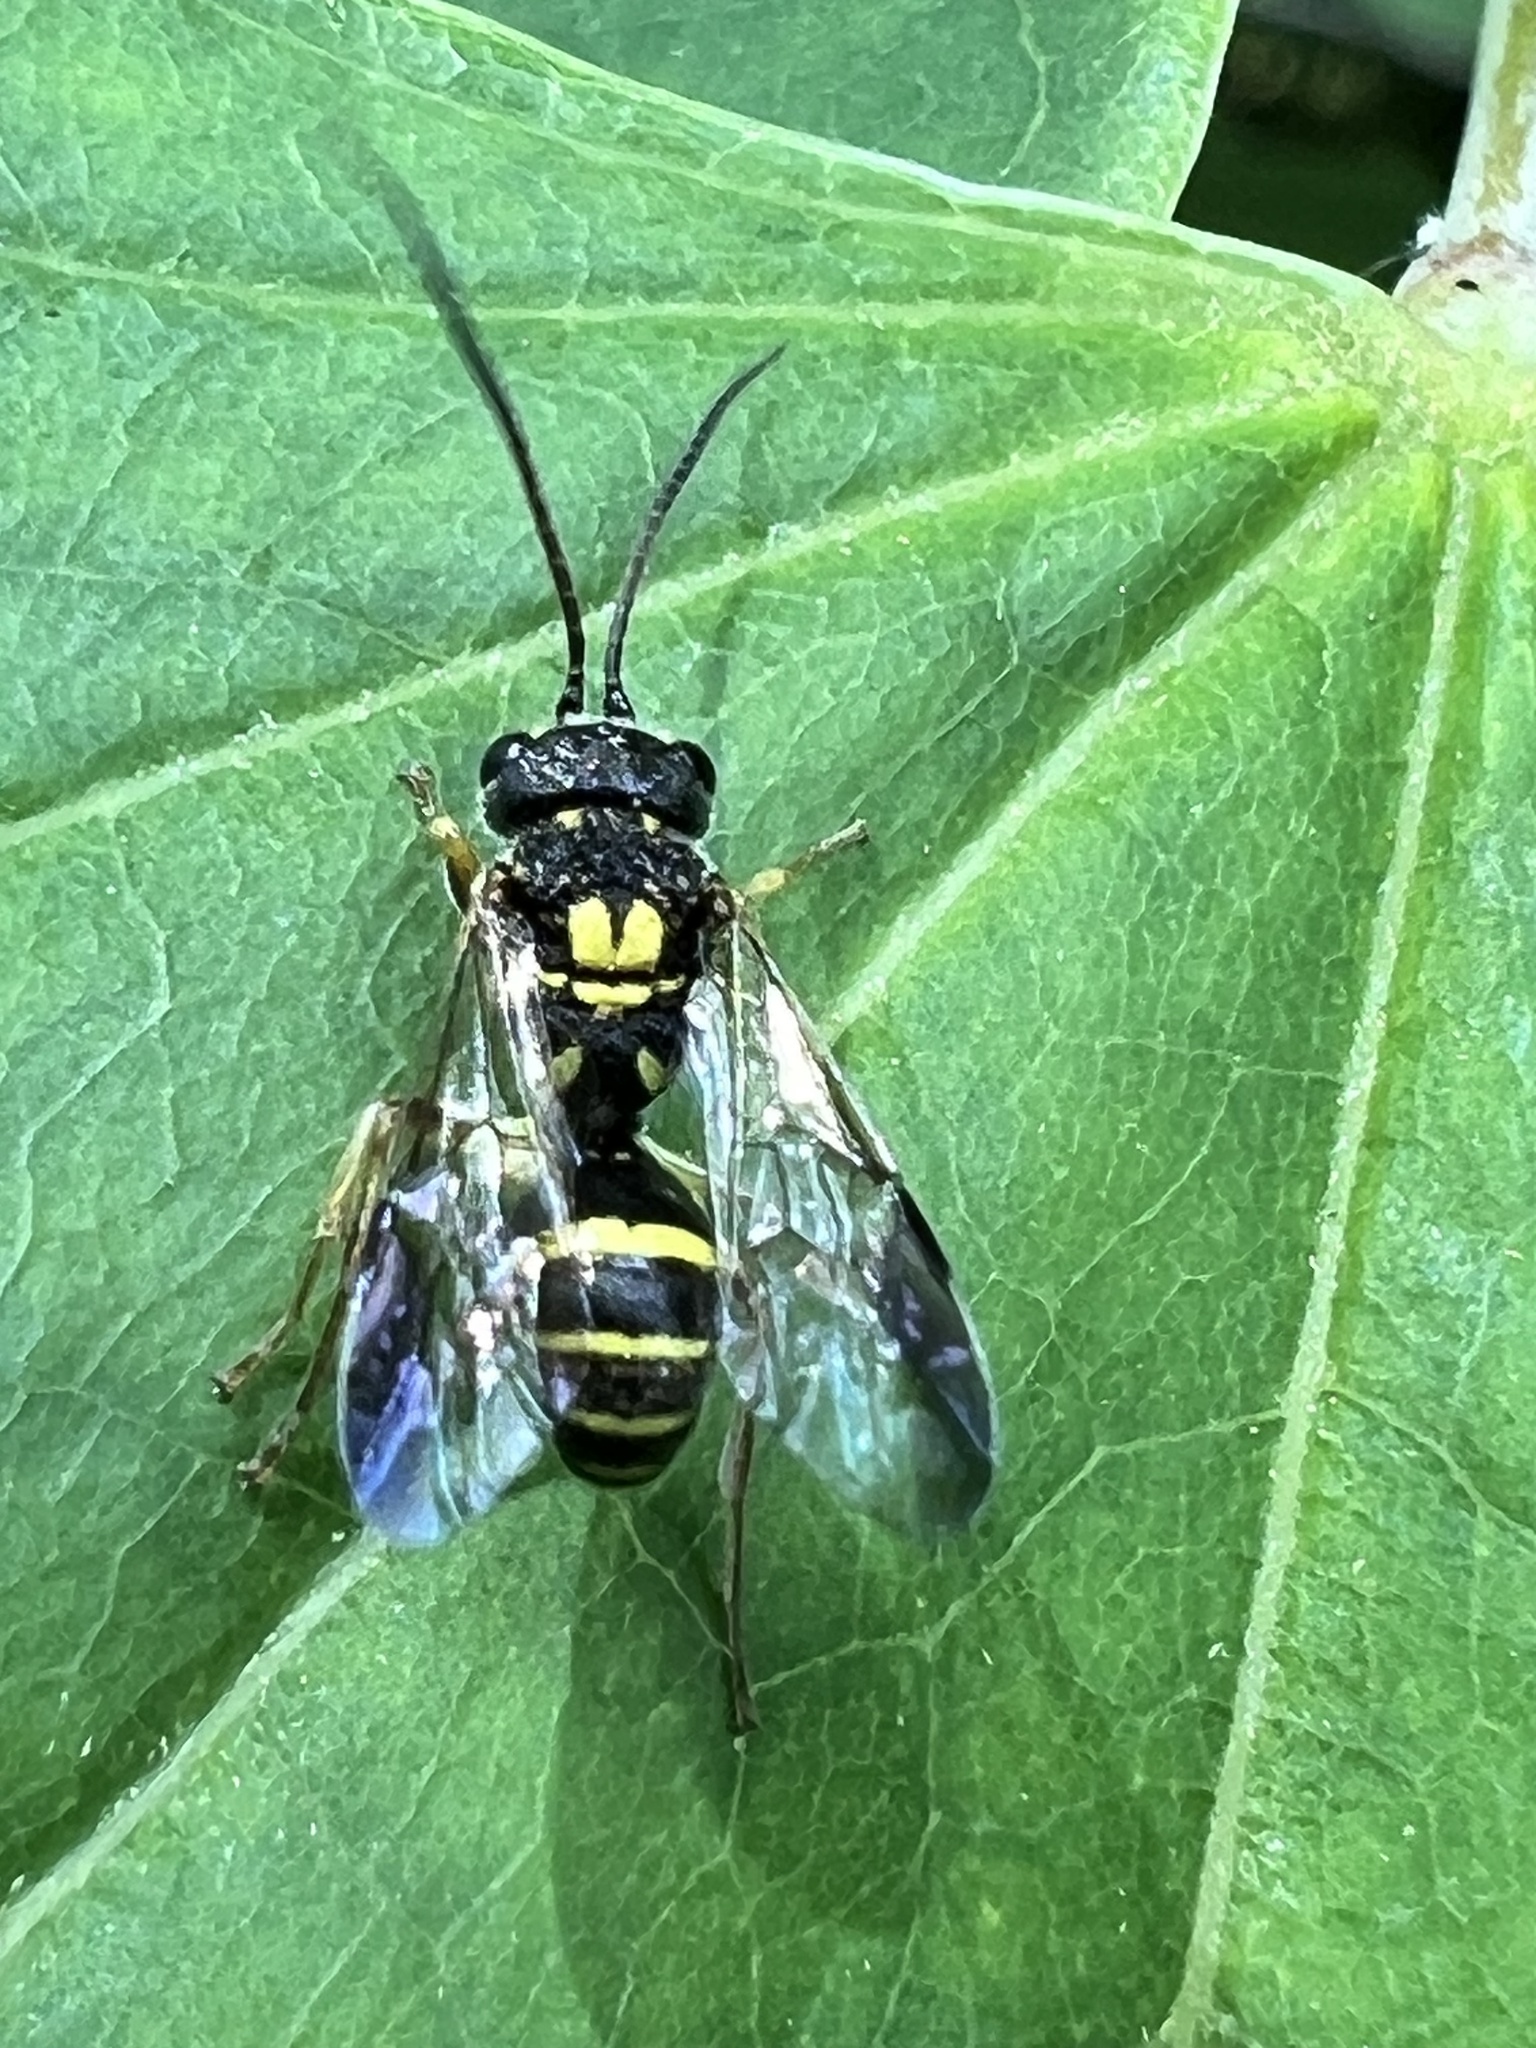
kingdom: Animalia
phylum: Arthropoda
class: Insecta
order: Hymenoptera
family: Trigonalidae
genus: Taeniogonalos
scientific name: Taeniogonalos gundlachii
